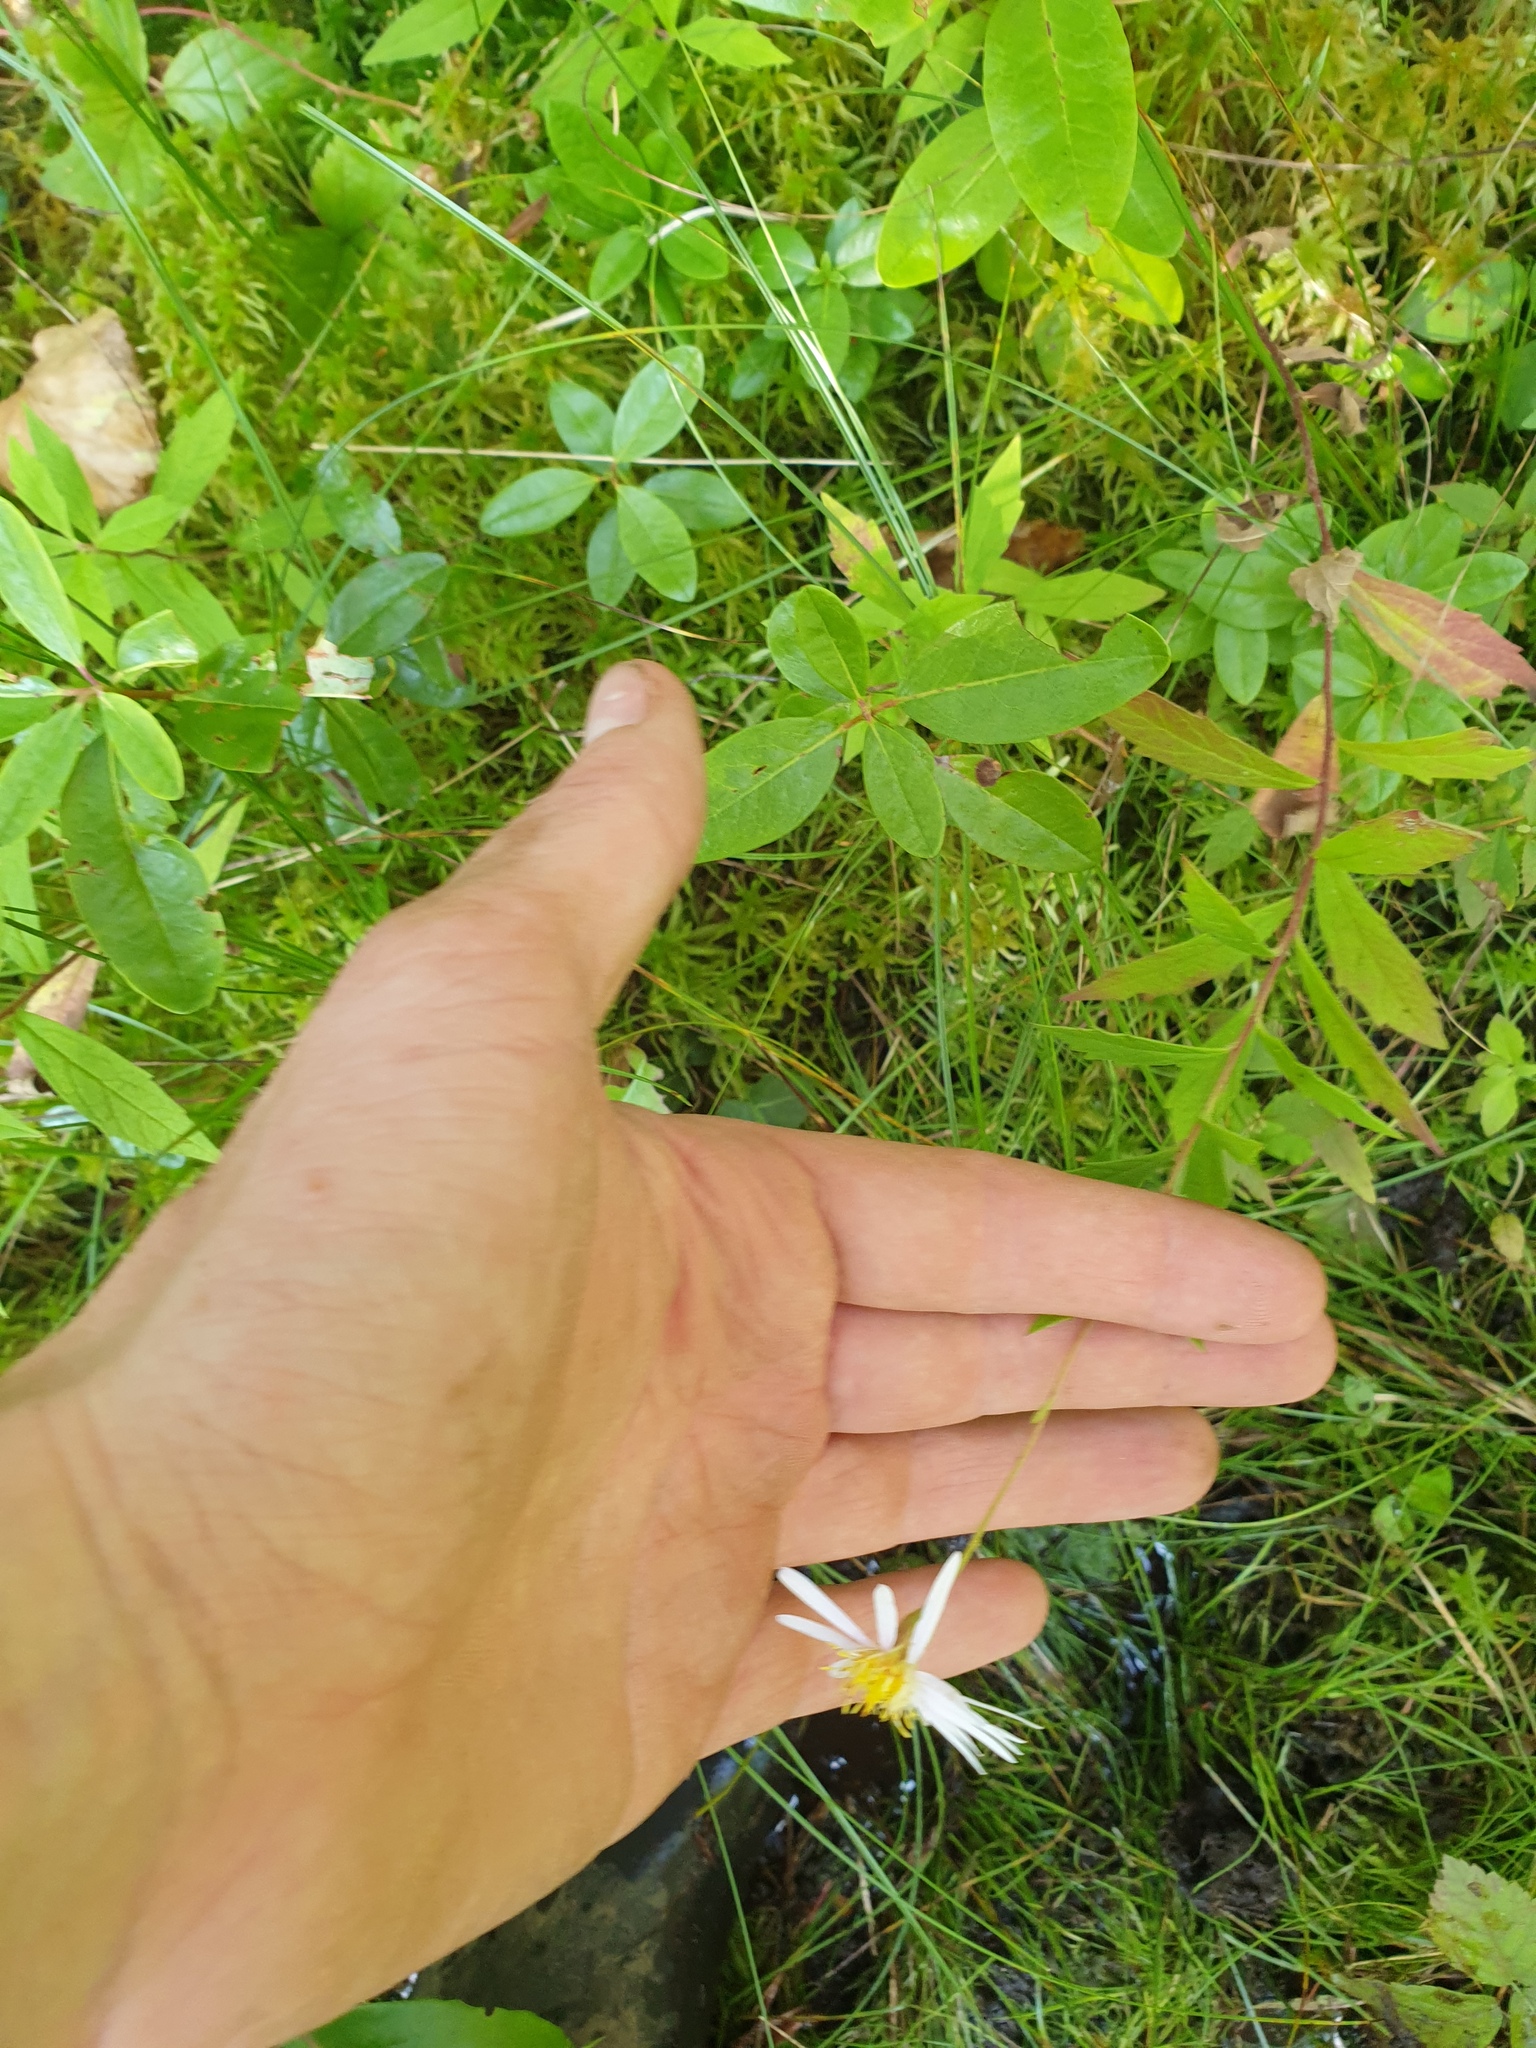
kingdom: Plantae
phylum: Tracheophyta
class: Magnoliopsida
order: Asterales
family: Asteraceae
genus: Oclemena
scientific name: Oclemena blakei
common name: Blake's aster
